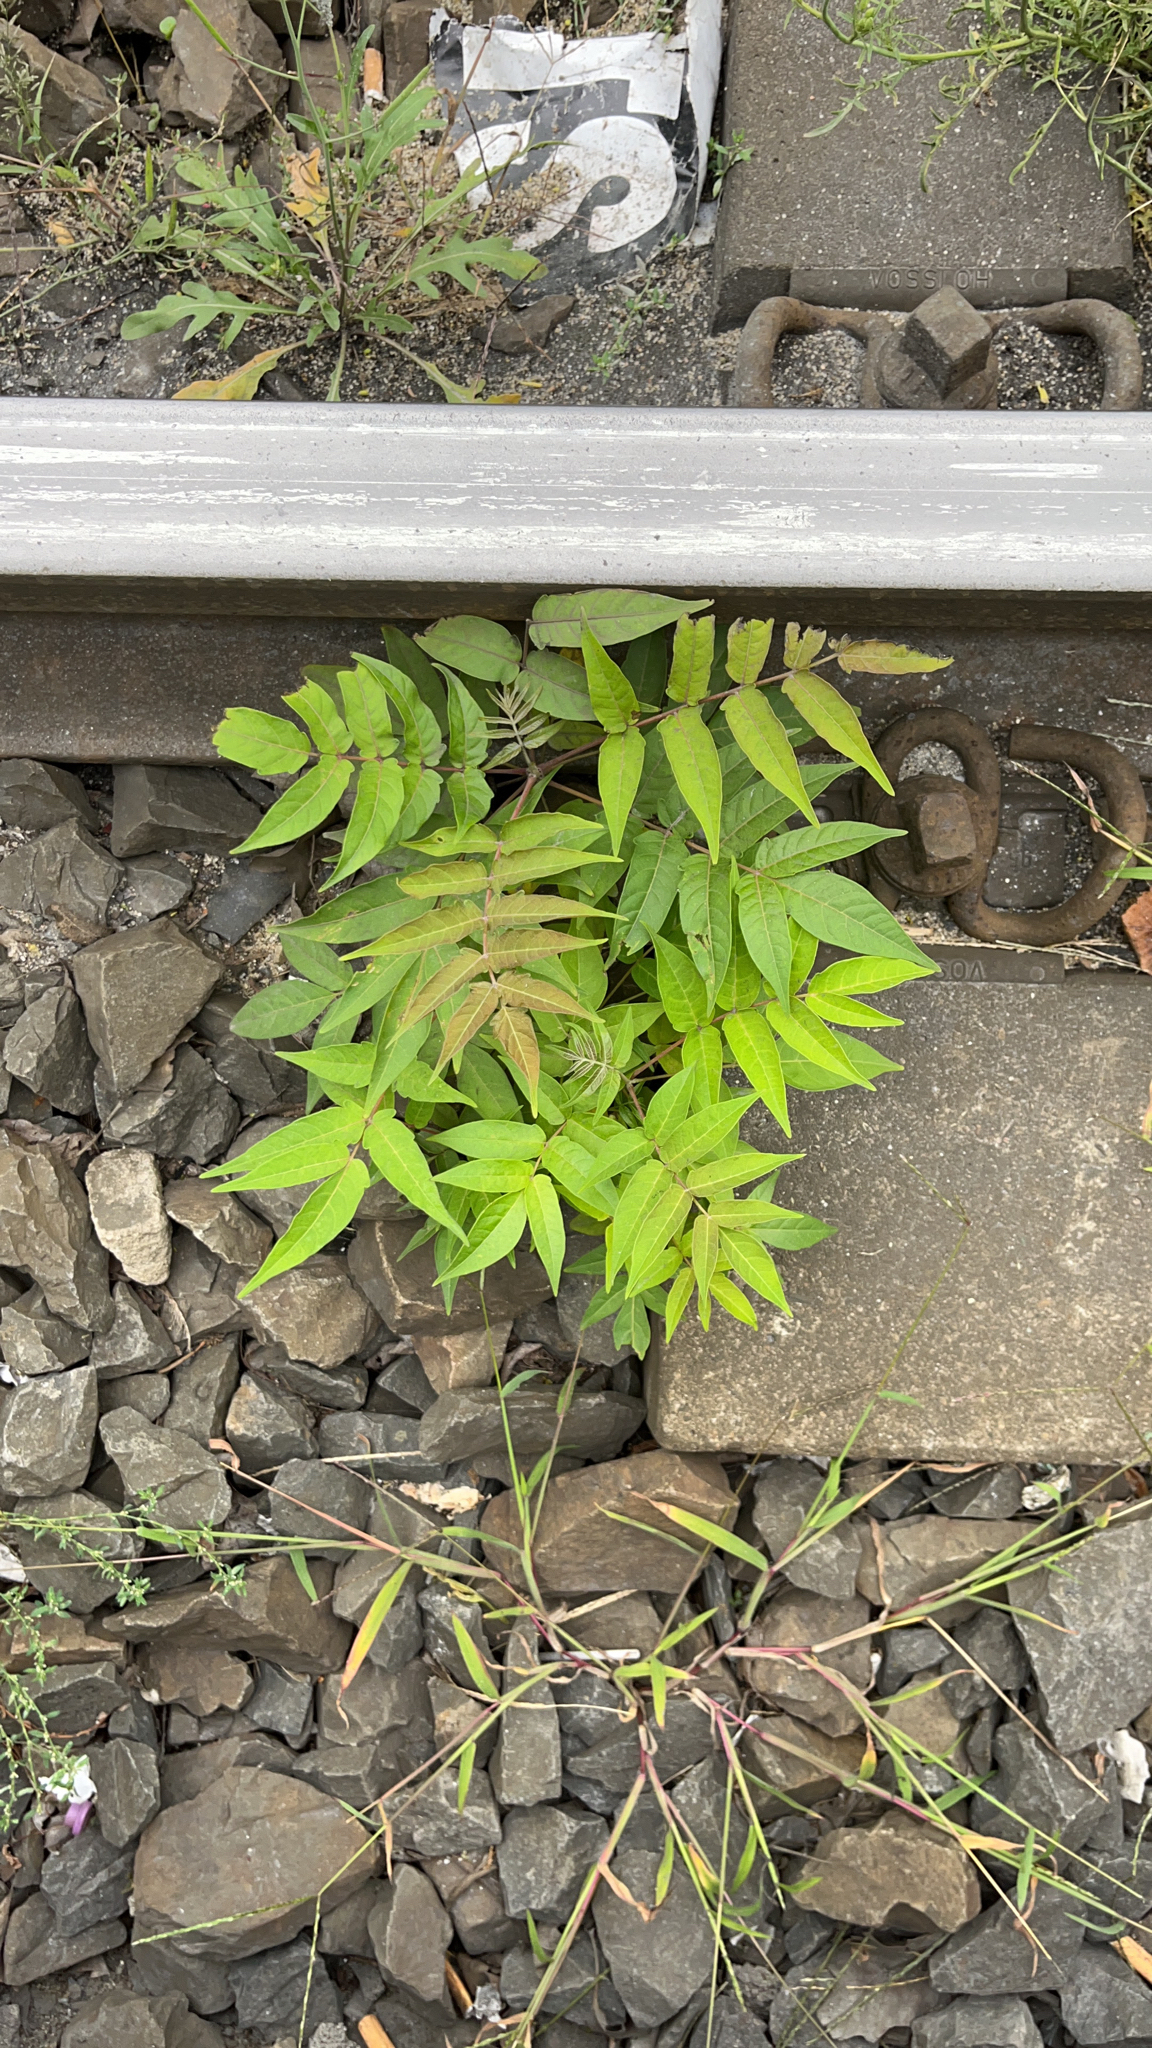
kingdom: Plantae
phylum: Tracheophyta
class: Magnoliopsida
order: Sapindales
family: Simaroubaceae
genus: Ailanthus
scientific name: Ailanthus altissima
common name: Tree-of-heaven
